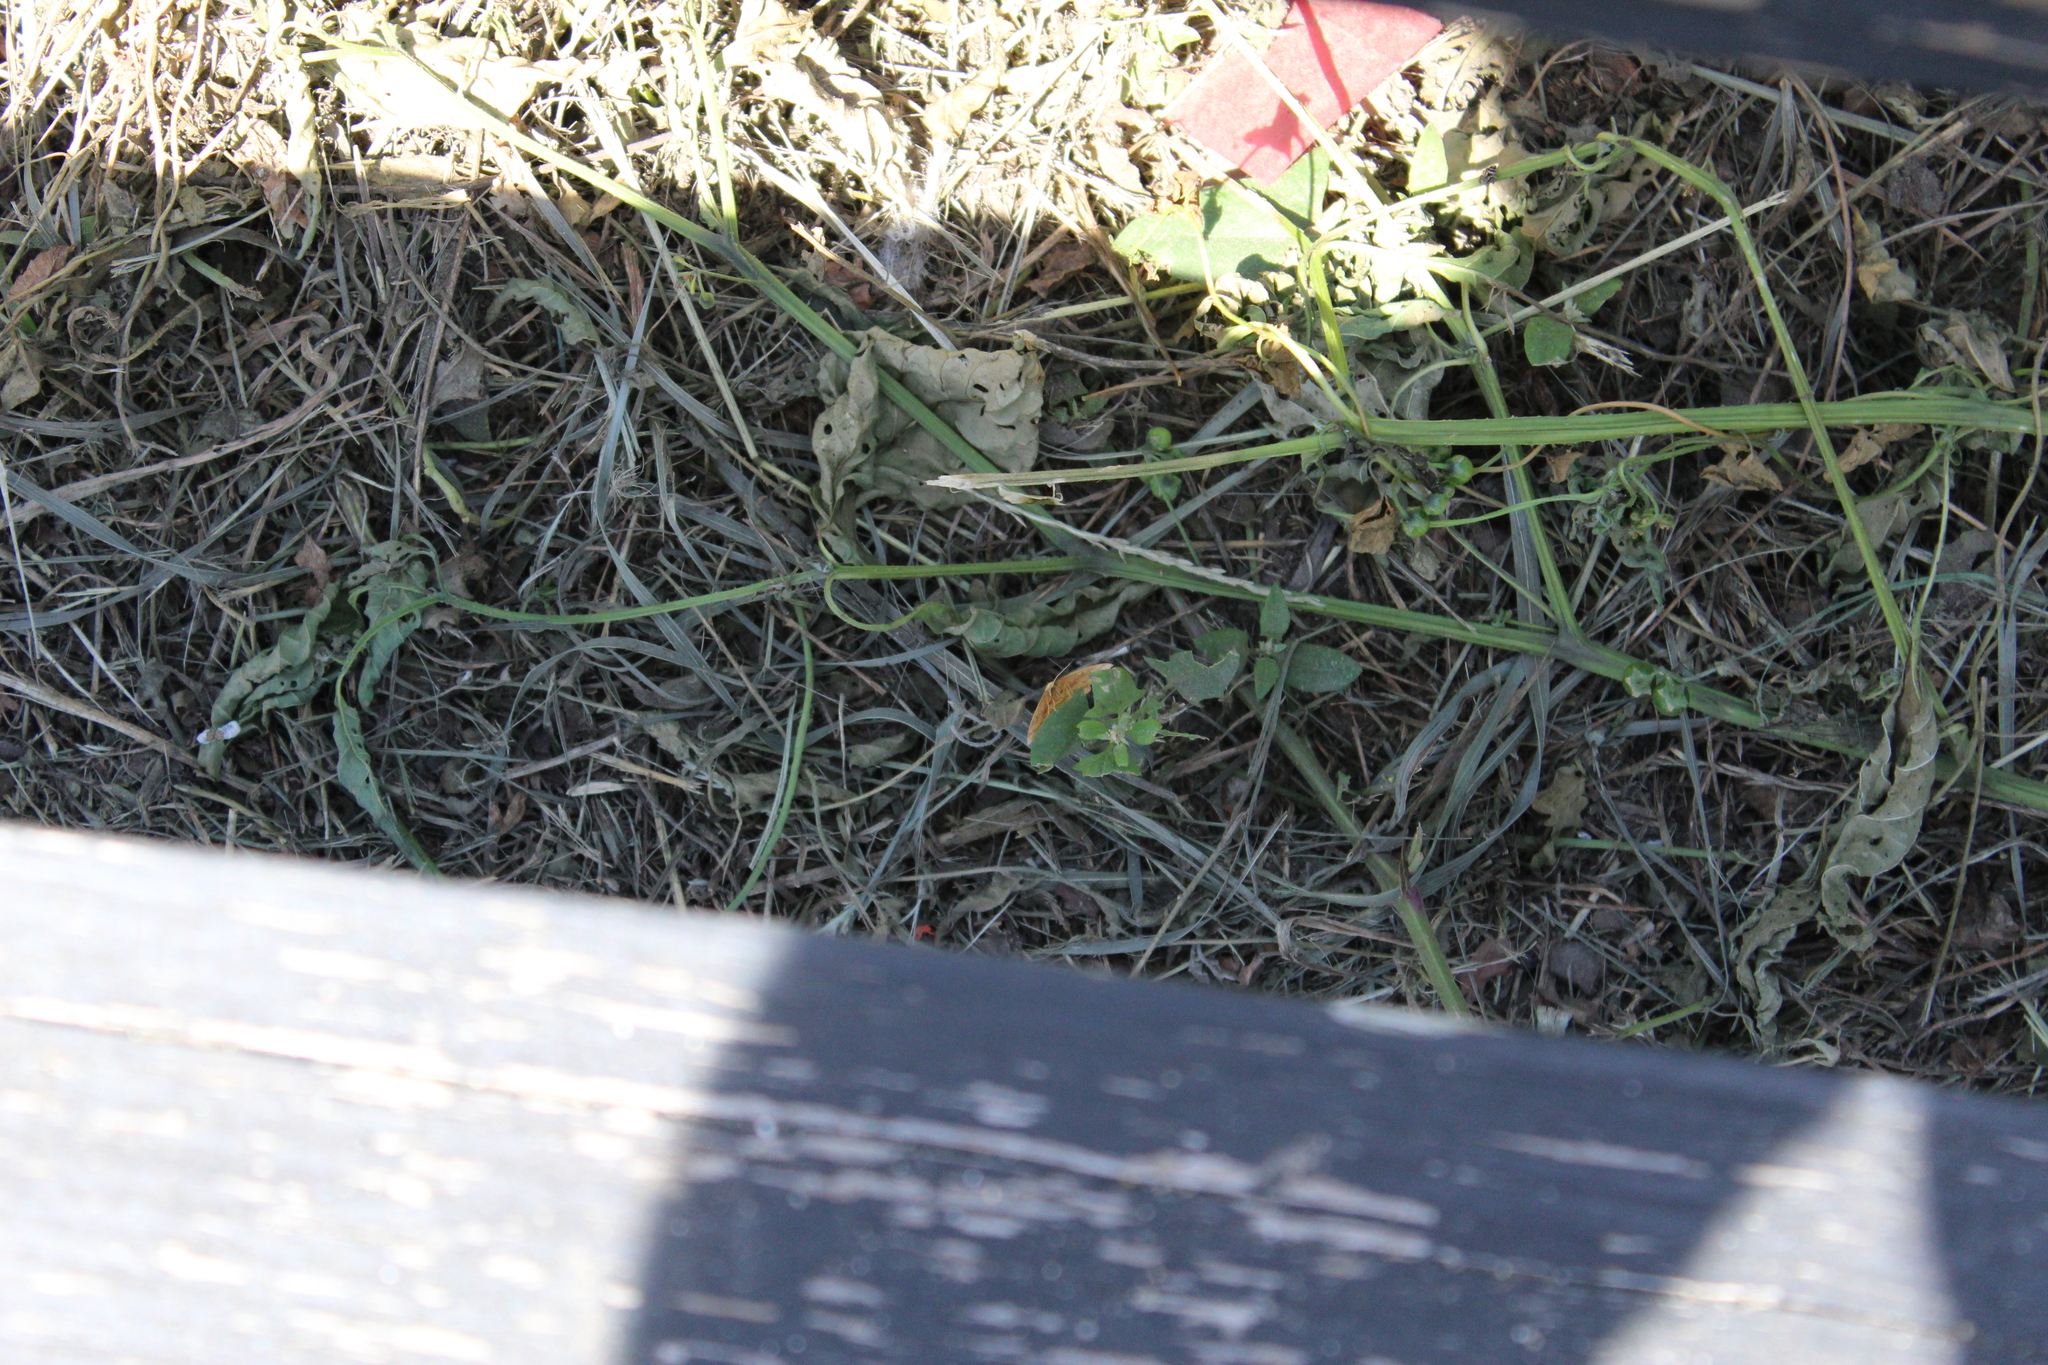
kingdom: Animalia
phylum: Arthropoda
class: Insecta
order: Lepidoptera
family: Geometridae
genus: Haematopis
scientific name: Haematopis grataria
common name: Chickweed geometer
